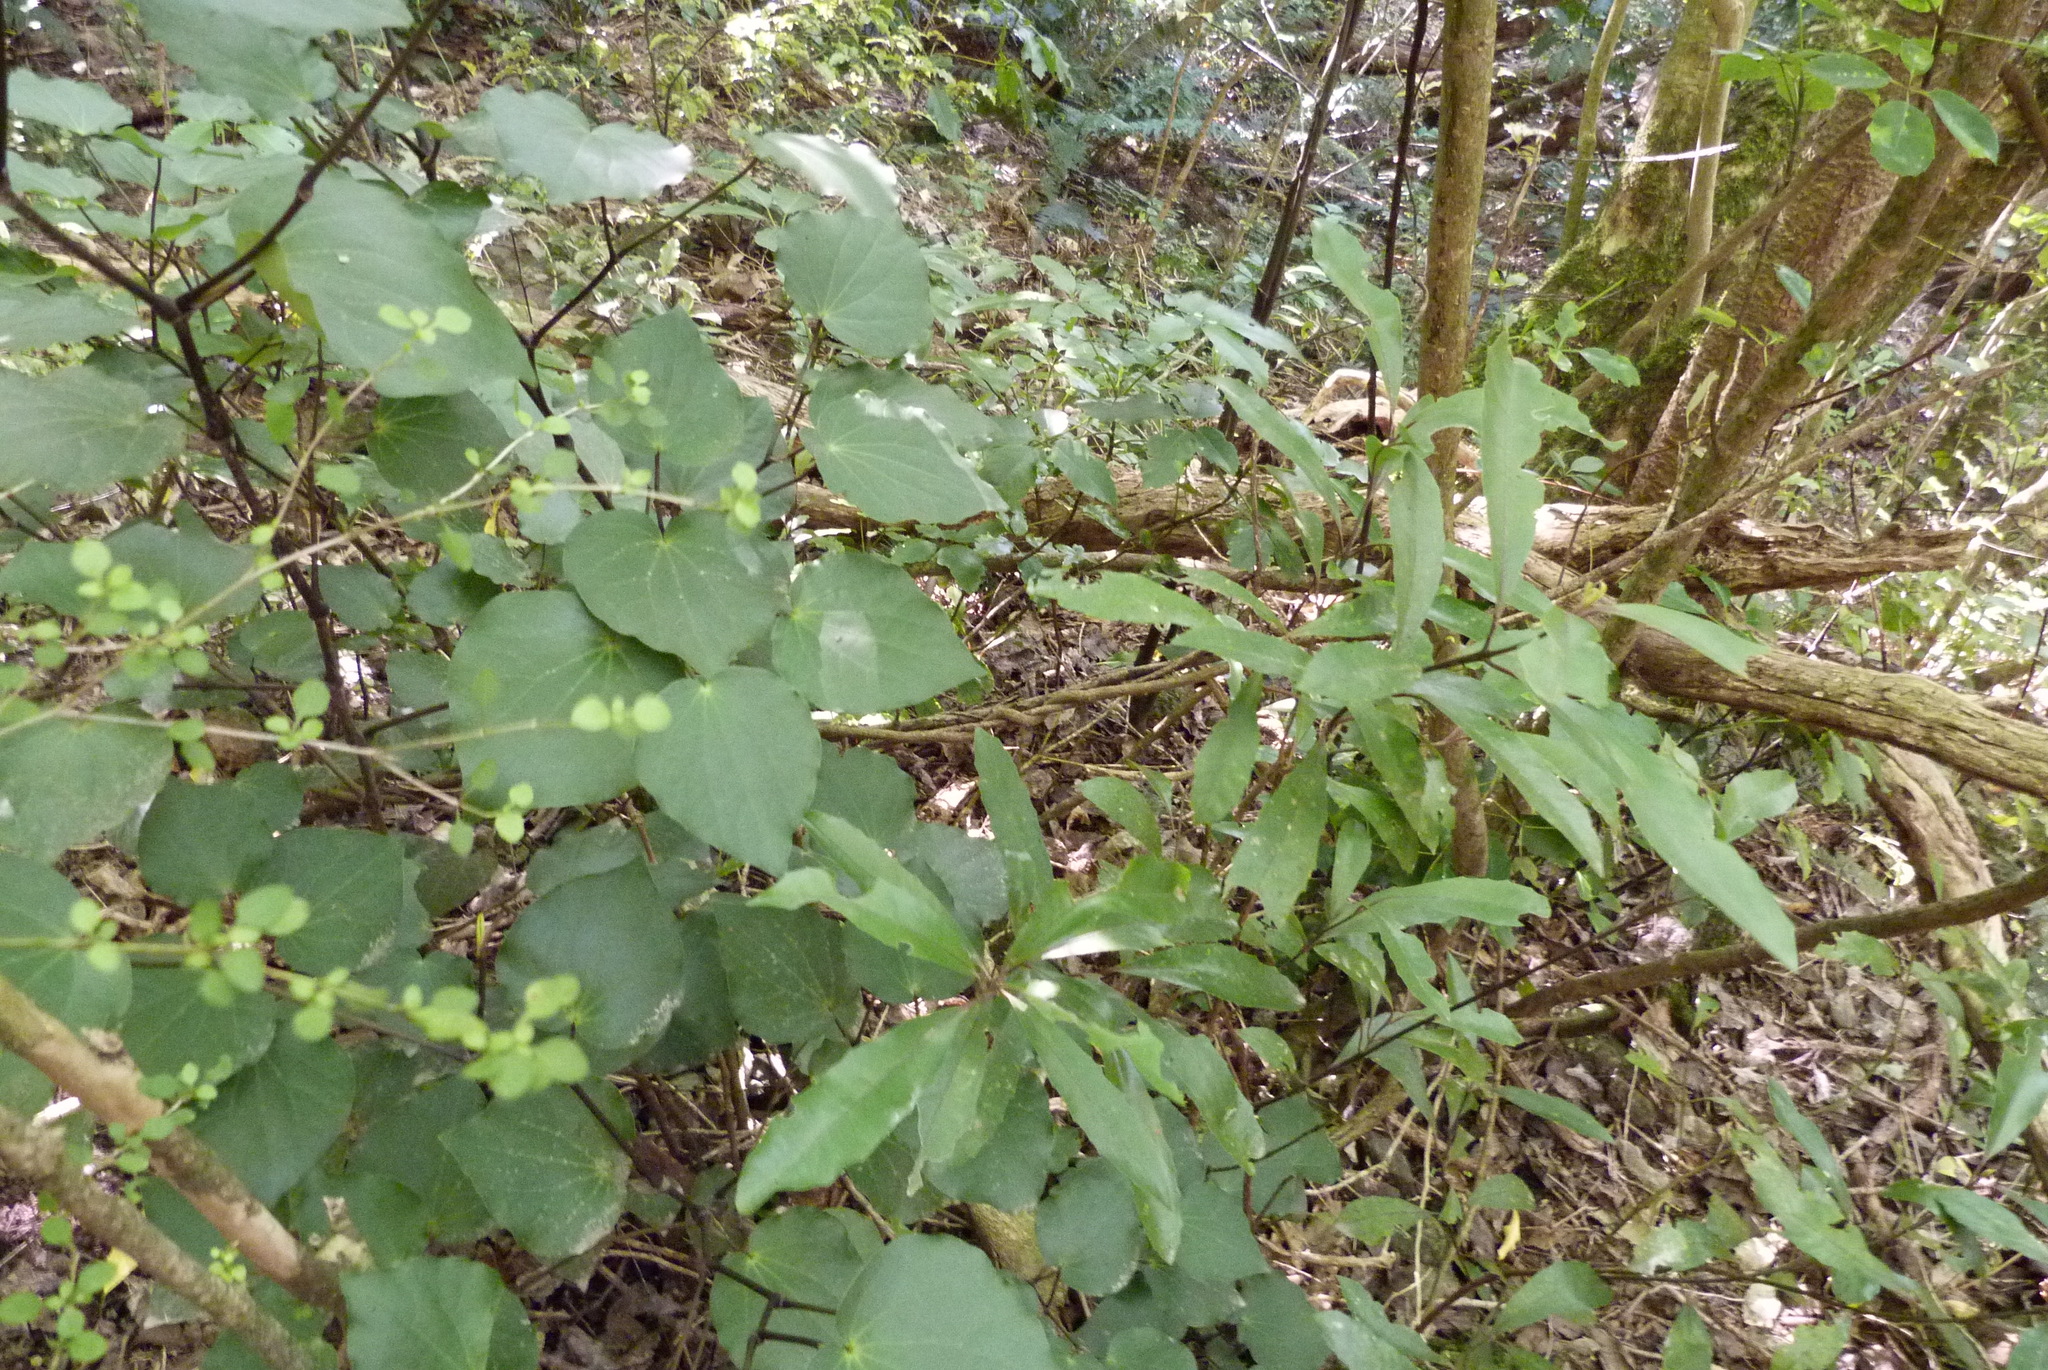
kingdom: Plantae
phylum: Tracheophyta
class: Magnoliopsida
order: Piperales
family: Piperaceae
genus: Macropiper
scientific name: Macropiper excelsum
